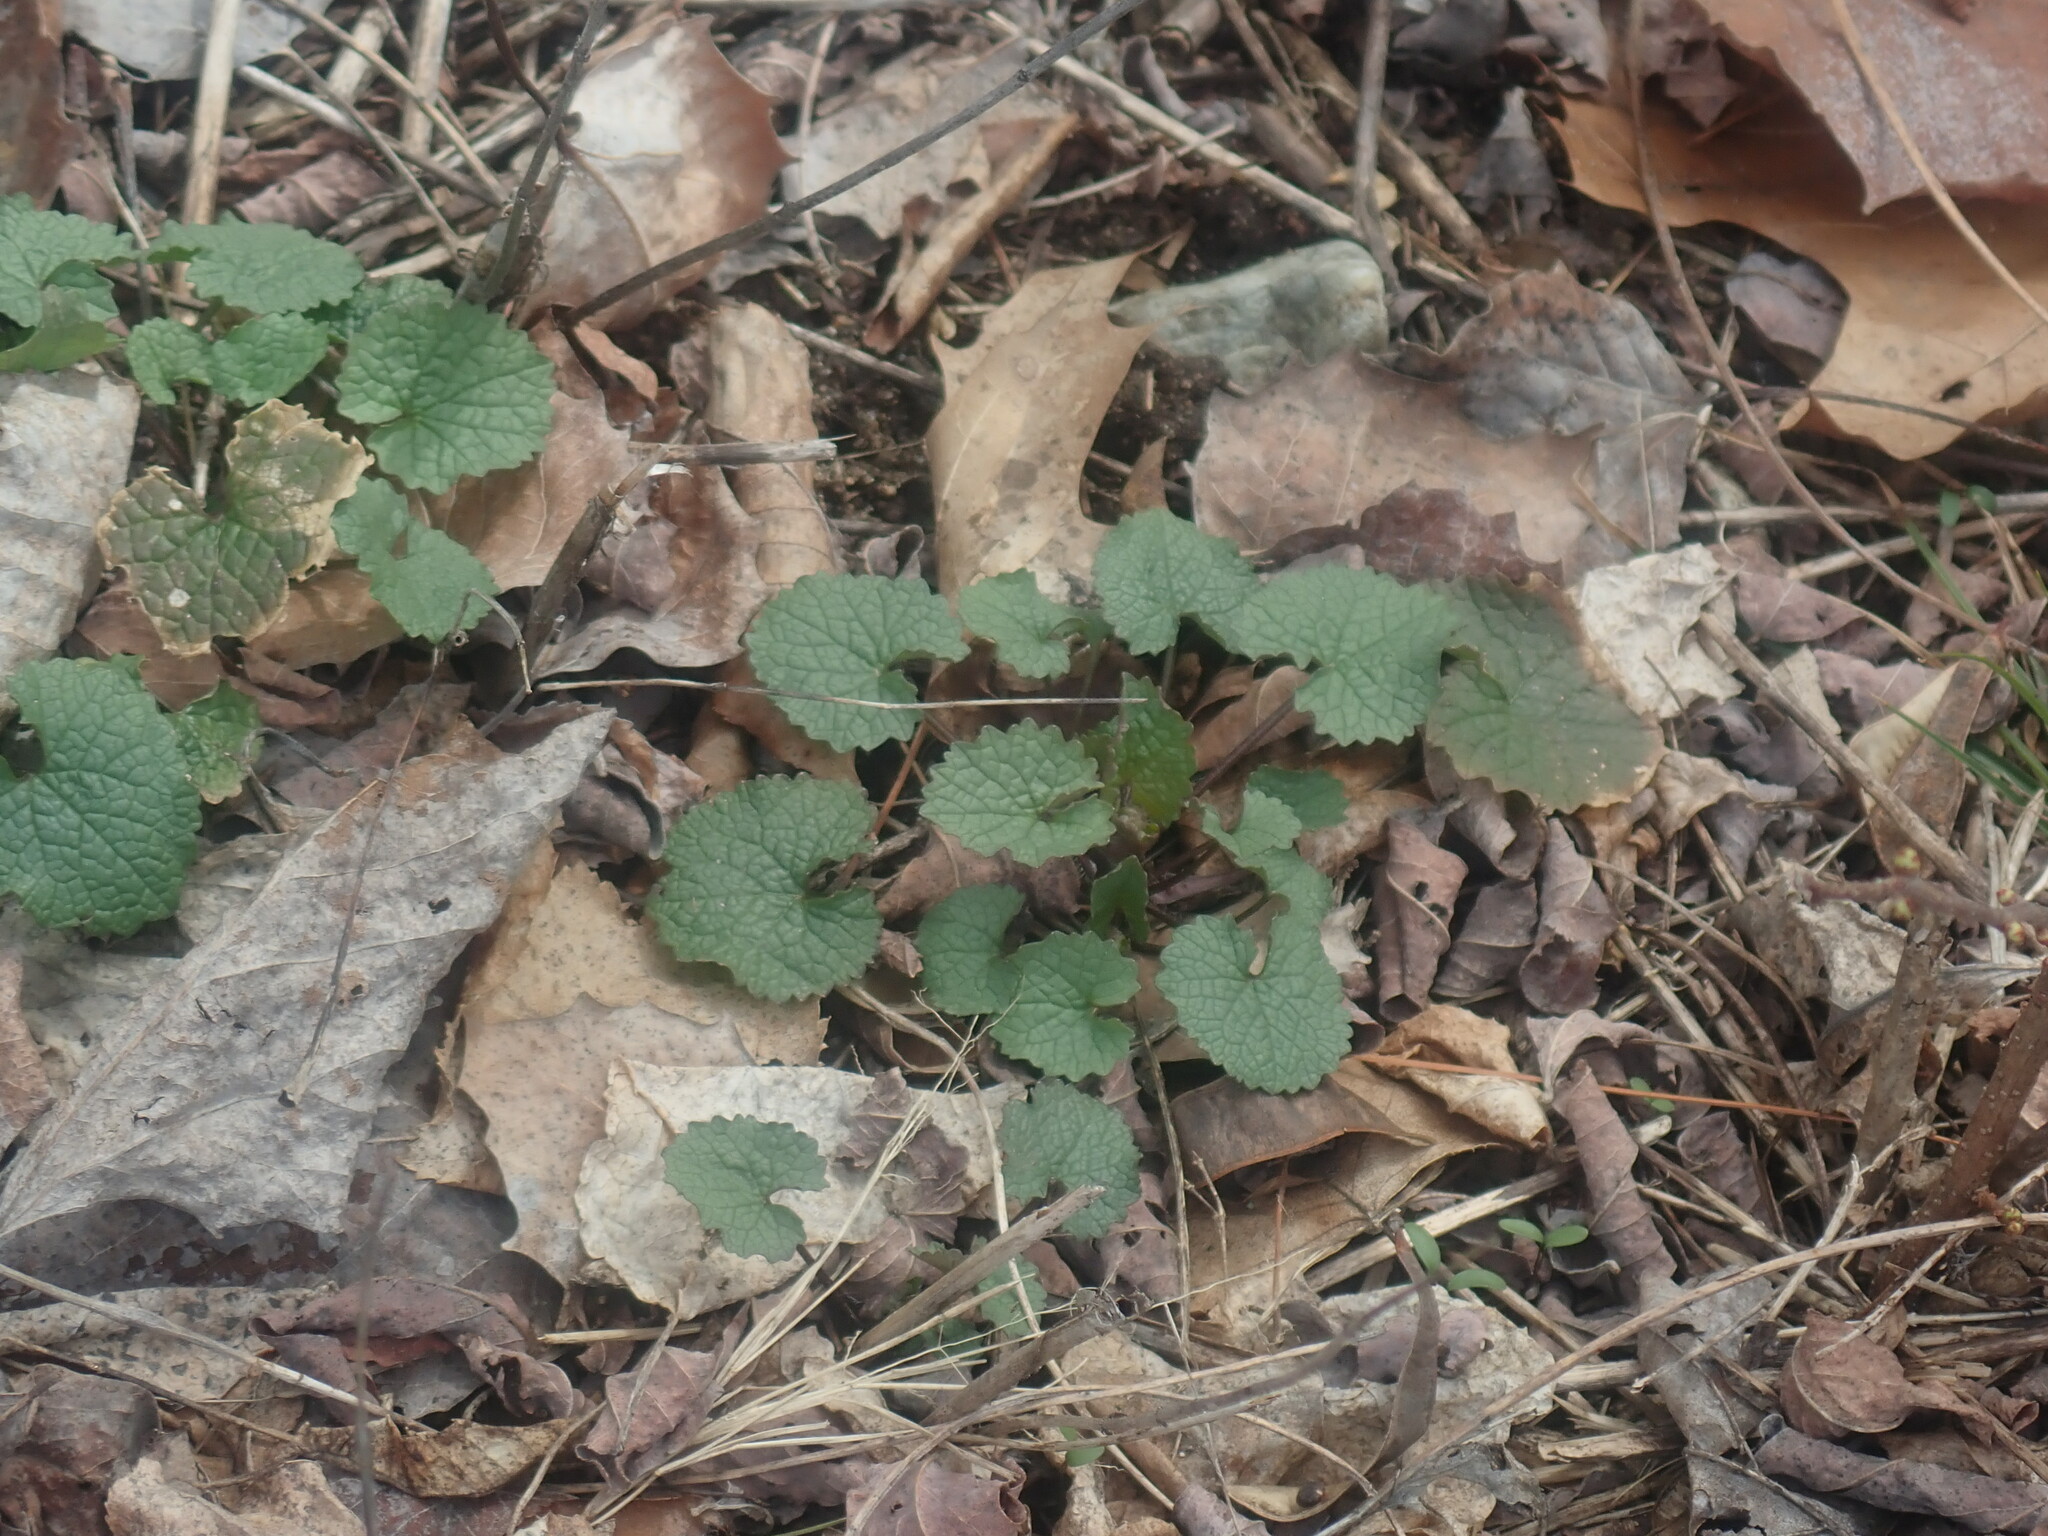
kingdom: Plantae
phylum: Tracheophyta
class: Magnoliopsida
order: Brassicales
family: Brassicaceae
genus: Alliaria
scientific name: Alliaria petiolata
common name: Garlic mustard
